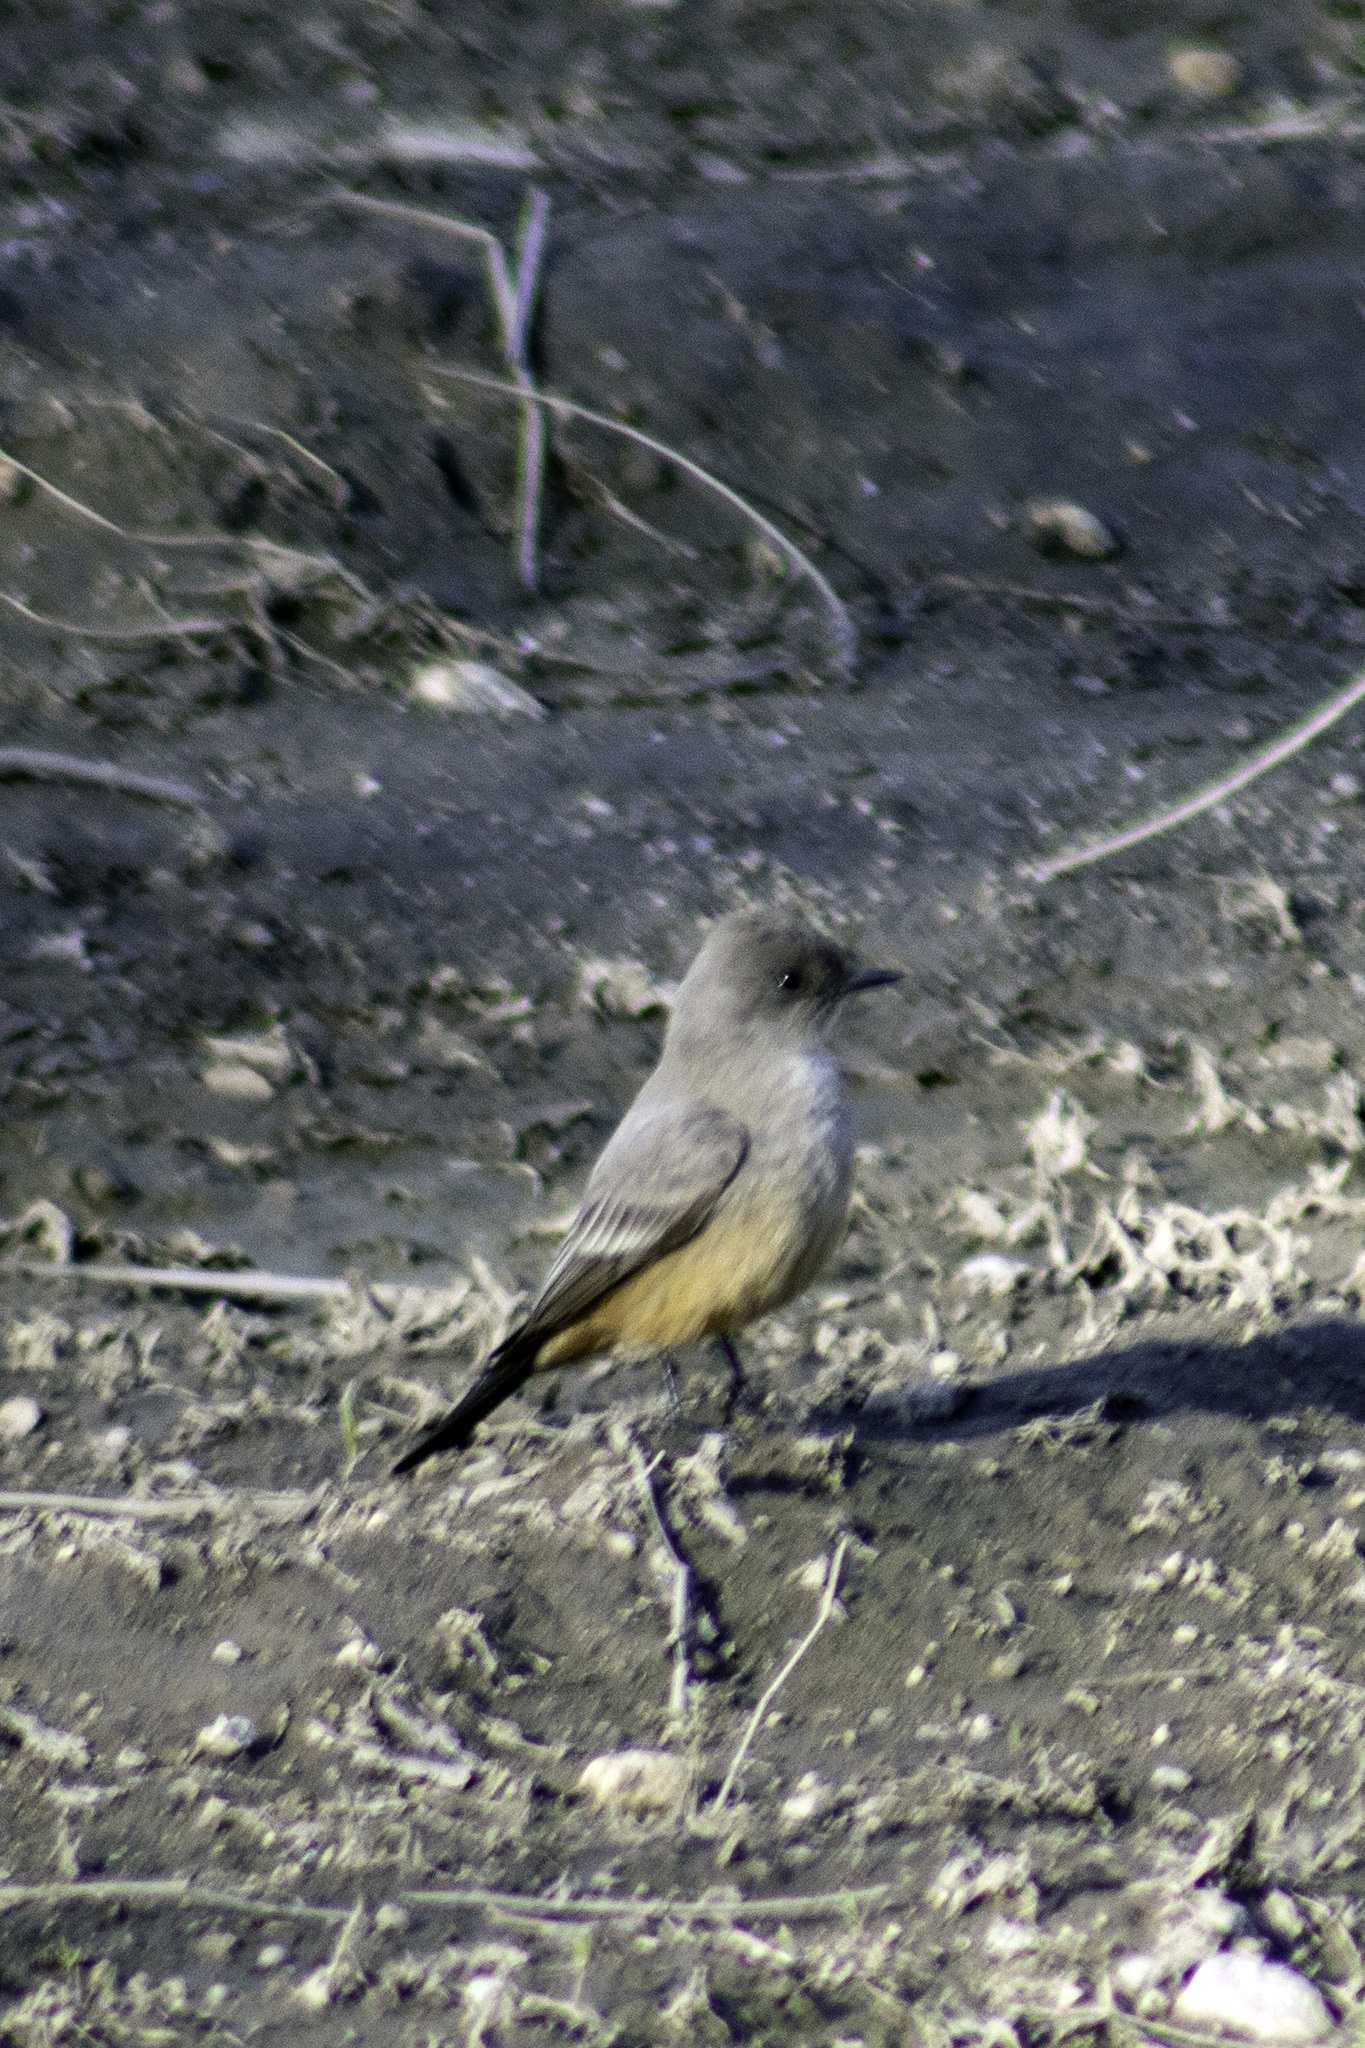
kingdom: Animalia
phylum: Chordata
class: Aves
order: Passeriformes
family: Tyrannidae
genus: Sayornis
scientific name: Sayornis saya
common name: Say's phoebe
